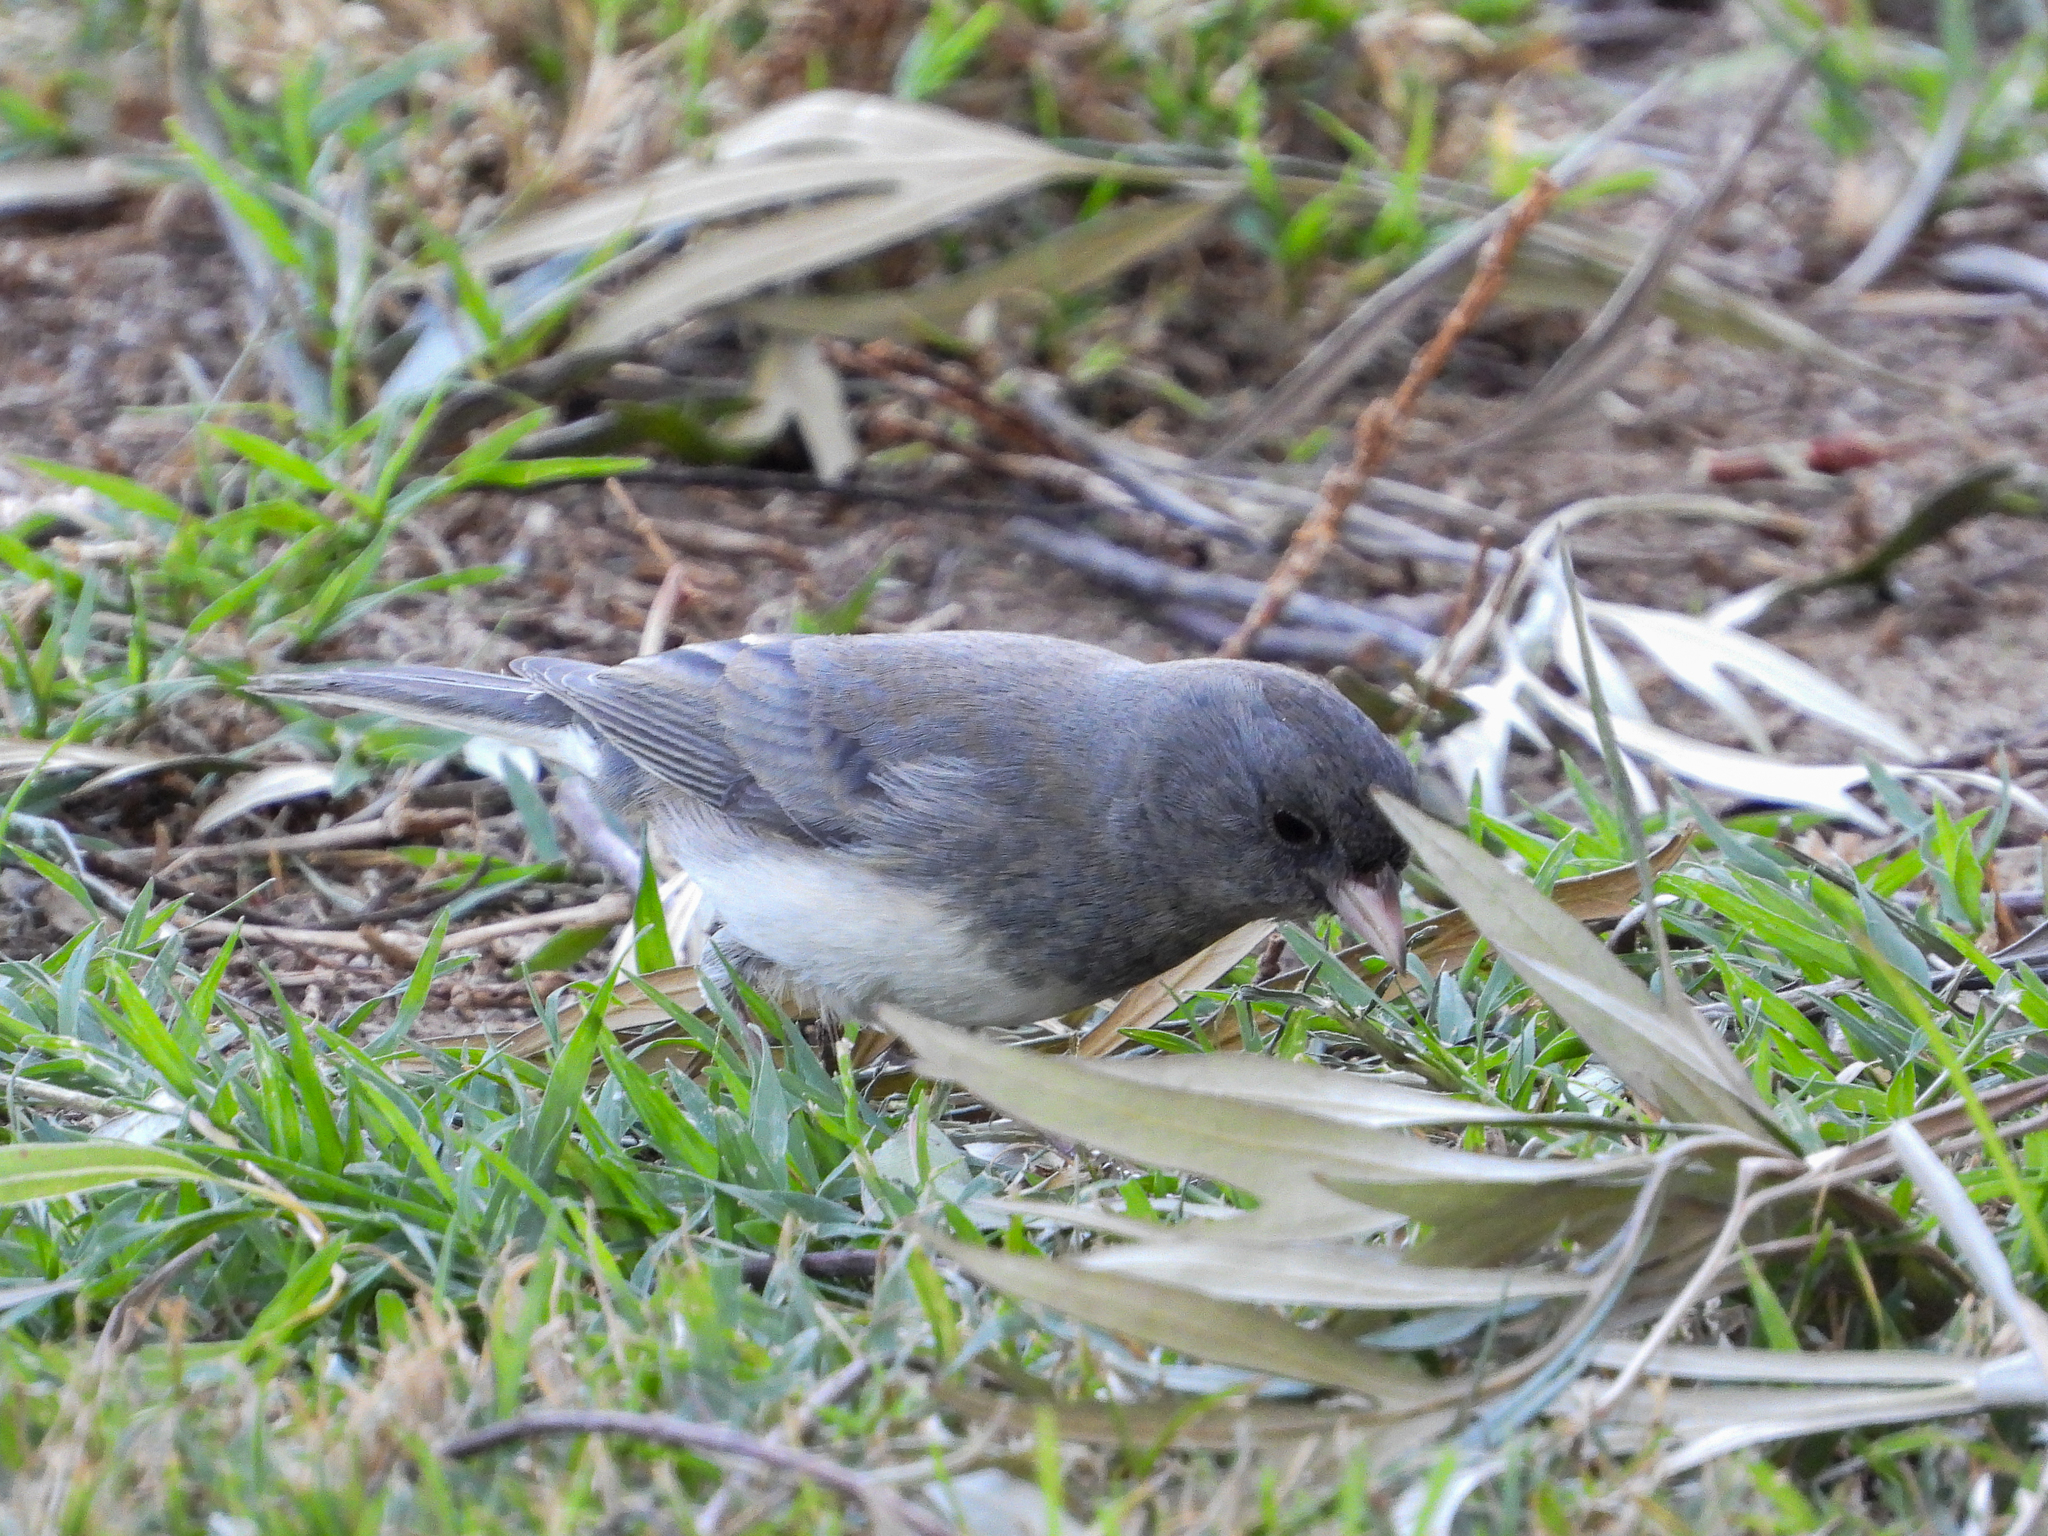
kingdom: Animalia
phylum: Chordata
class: Aves
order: Passeriformes
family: Passerellidae
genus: Junco
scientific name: Junco hyemalis
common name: Dark-eyed junco
